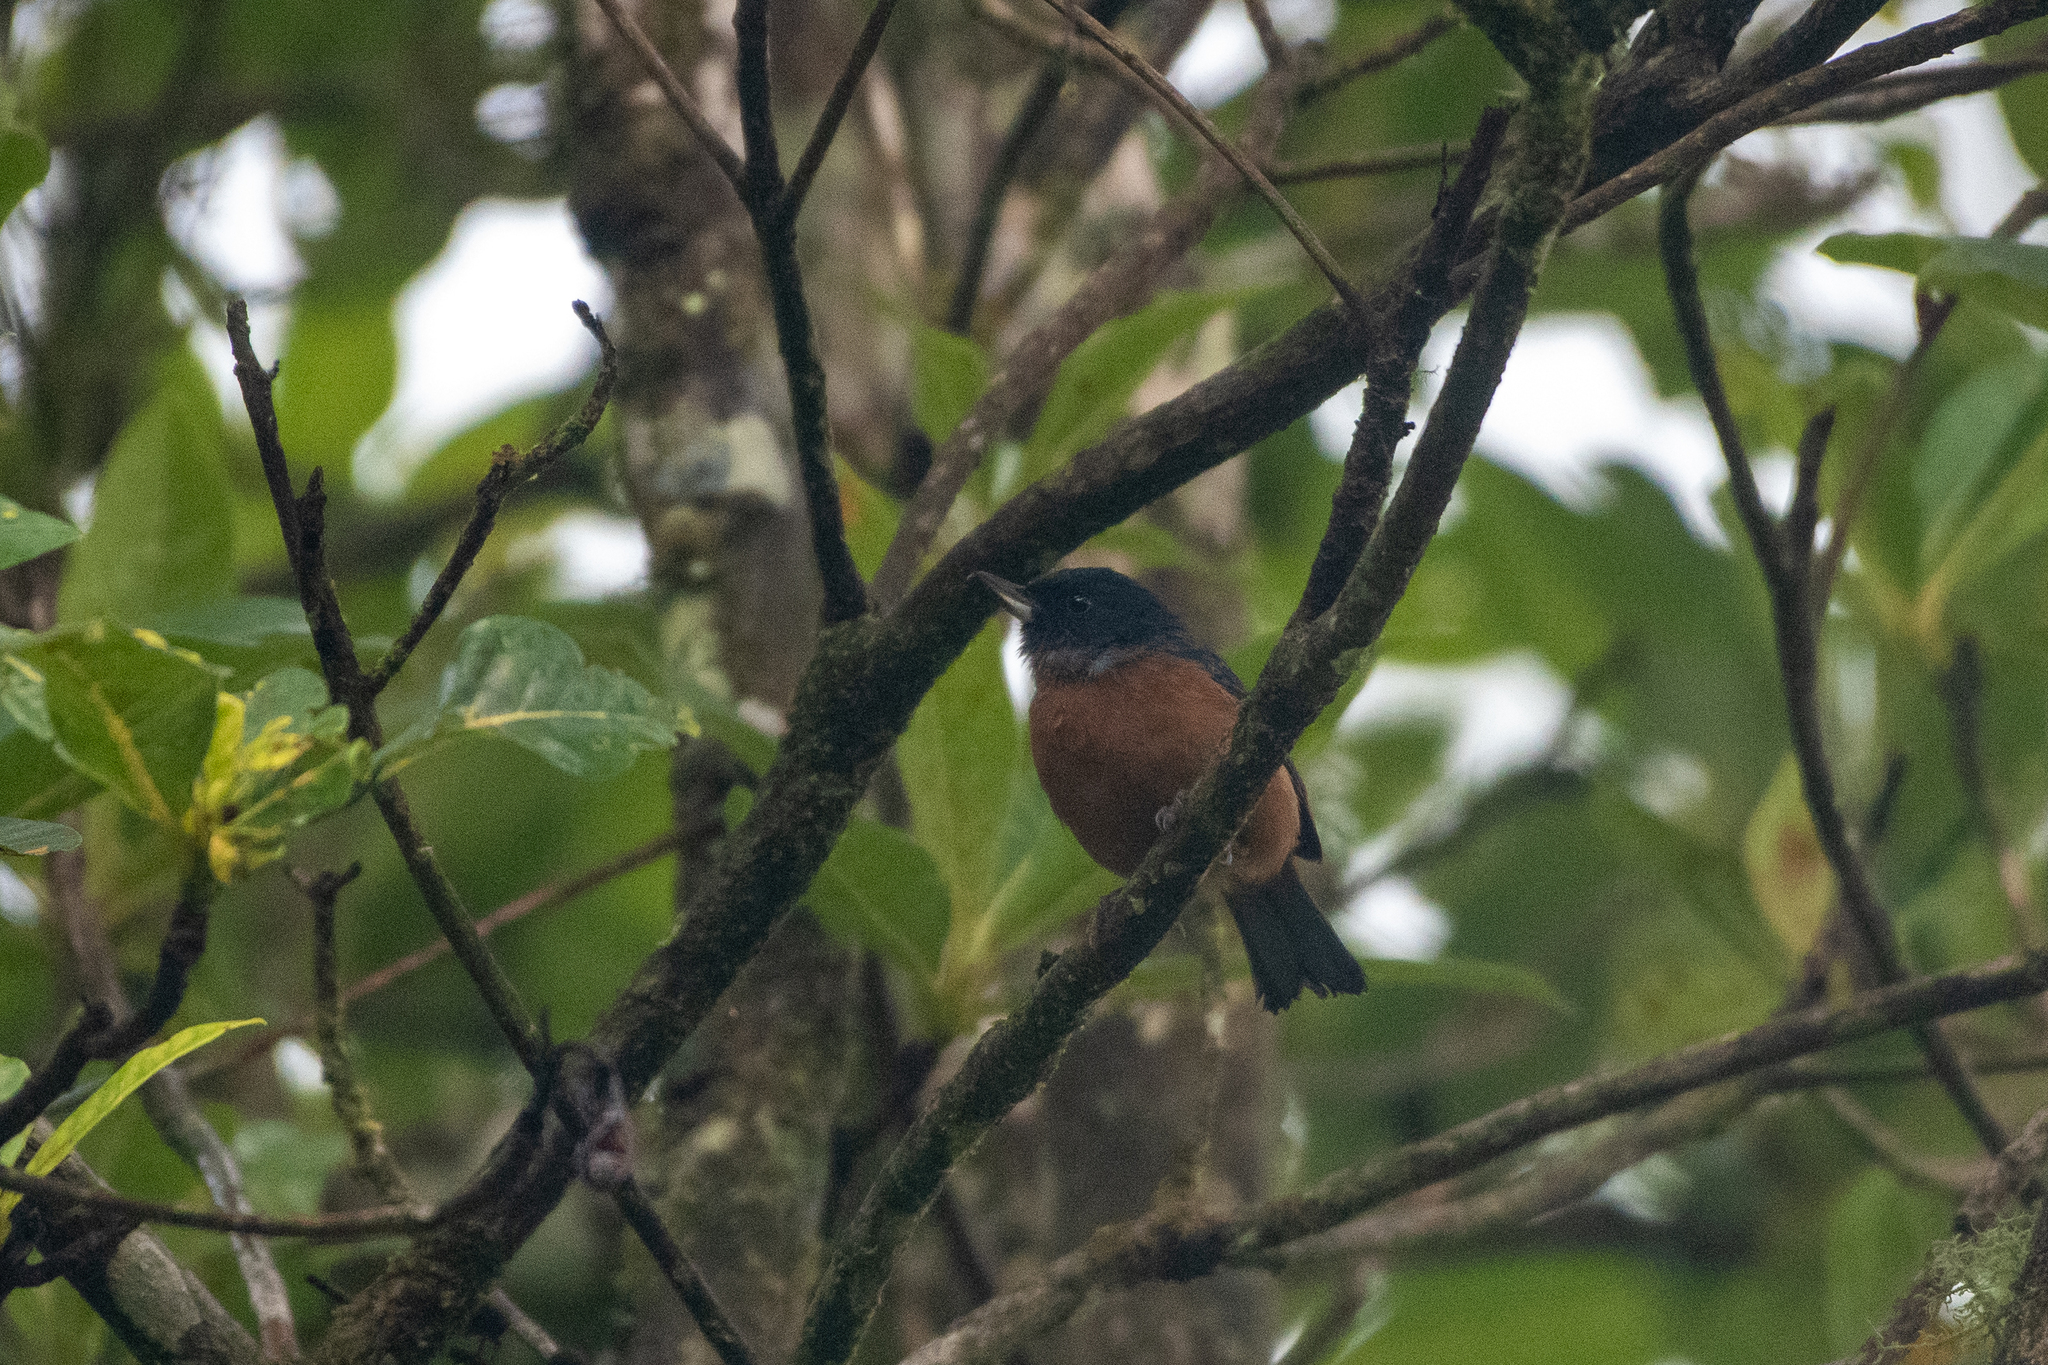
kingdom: Animalia
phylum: Chordata
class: Aves
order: Passeriformes
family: Thraupidae
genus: Diglossa
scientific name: Diglossa baritula
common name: Cinnamon-bellied flowerpiercer
